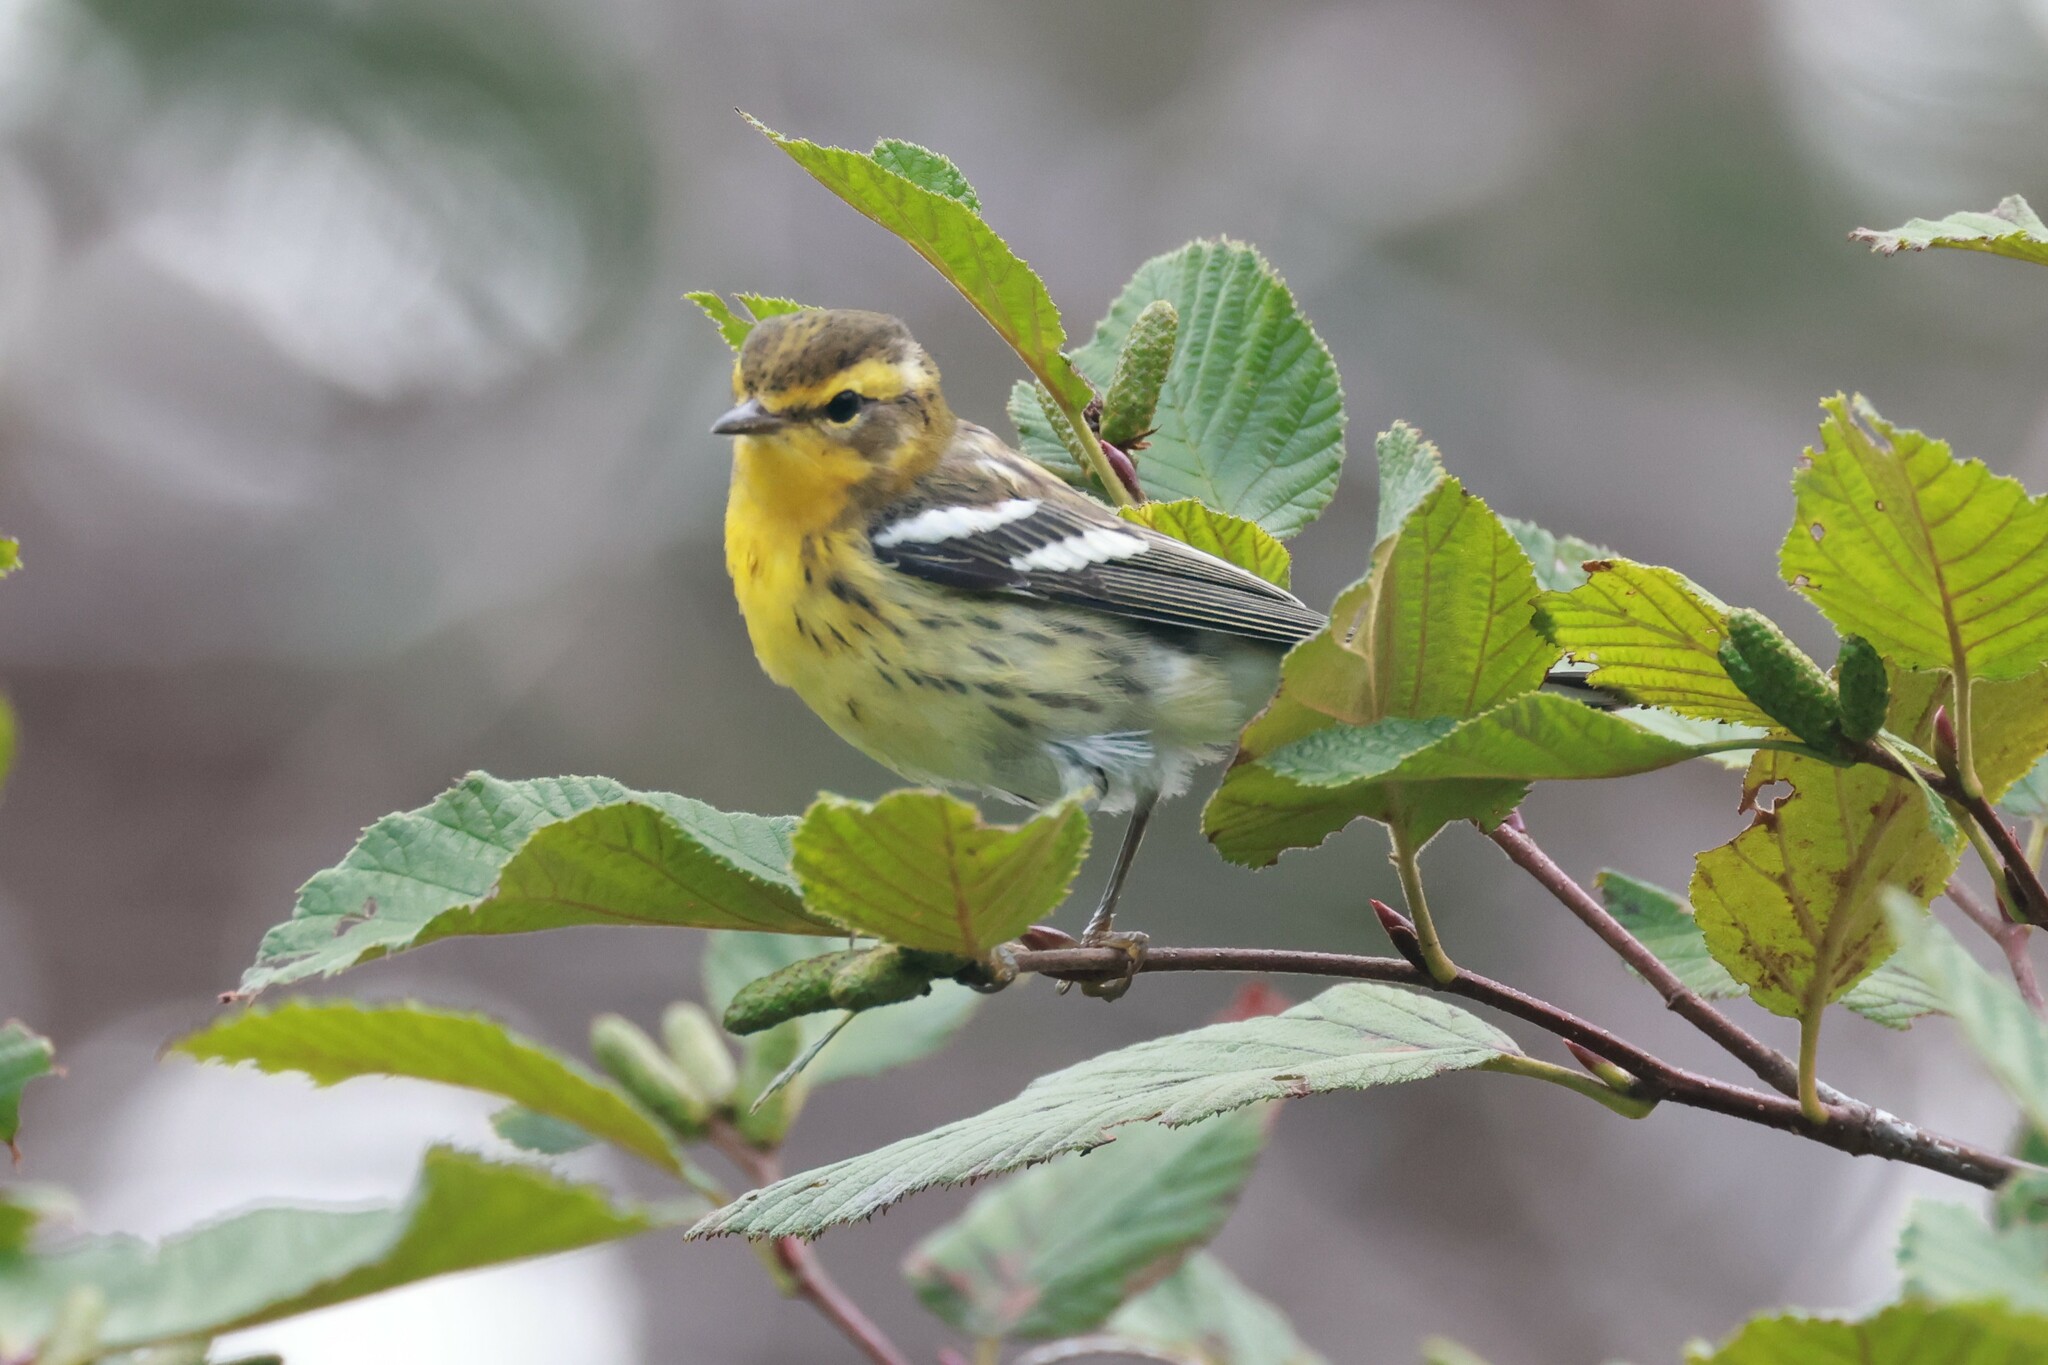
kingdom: Animalia
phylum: Chordata
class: Aves
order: Passeriformes
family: Parulidae
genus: Setophaga
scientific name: Setophaga fusca
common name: Blackburnian warbler
